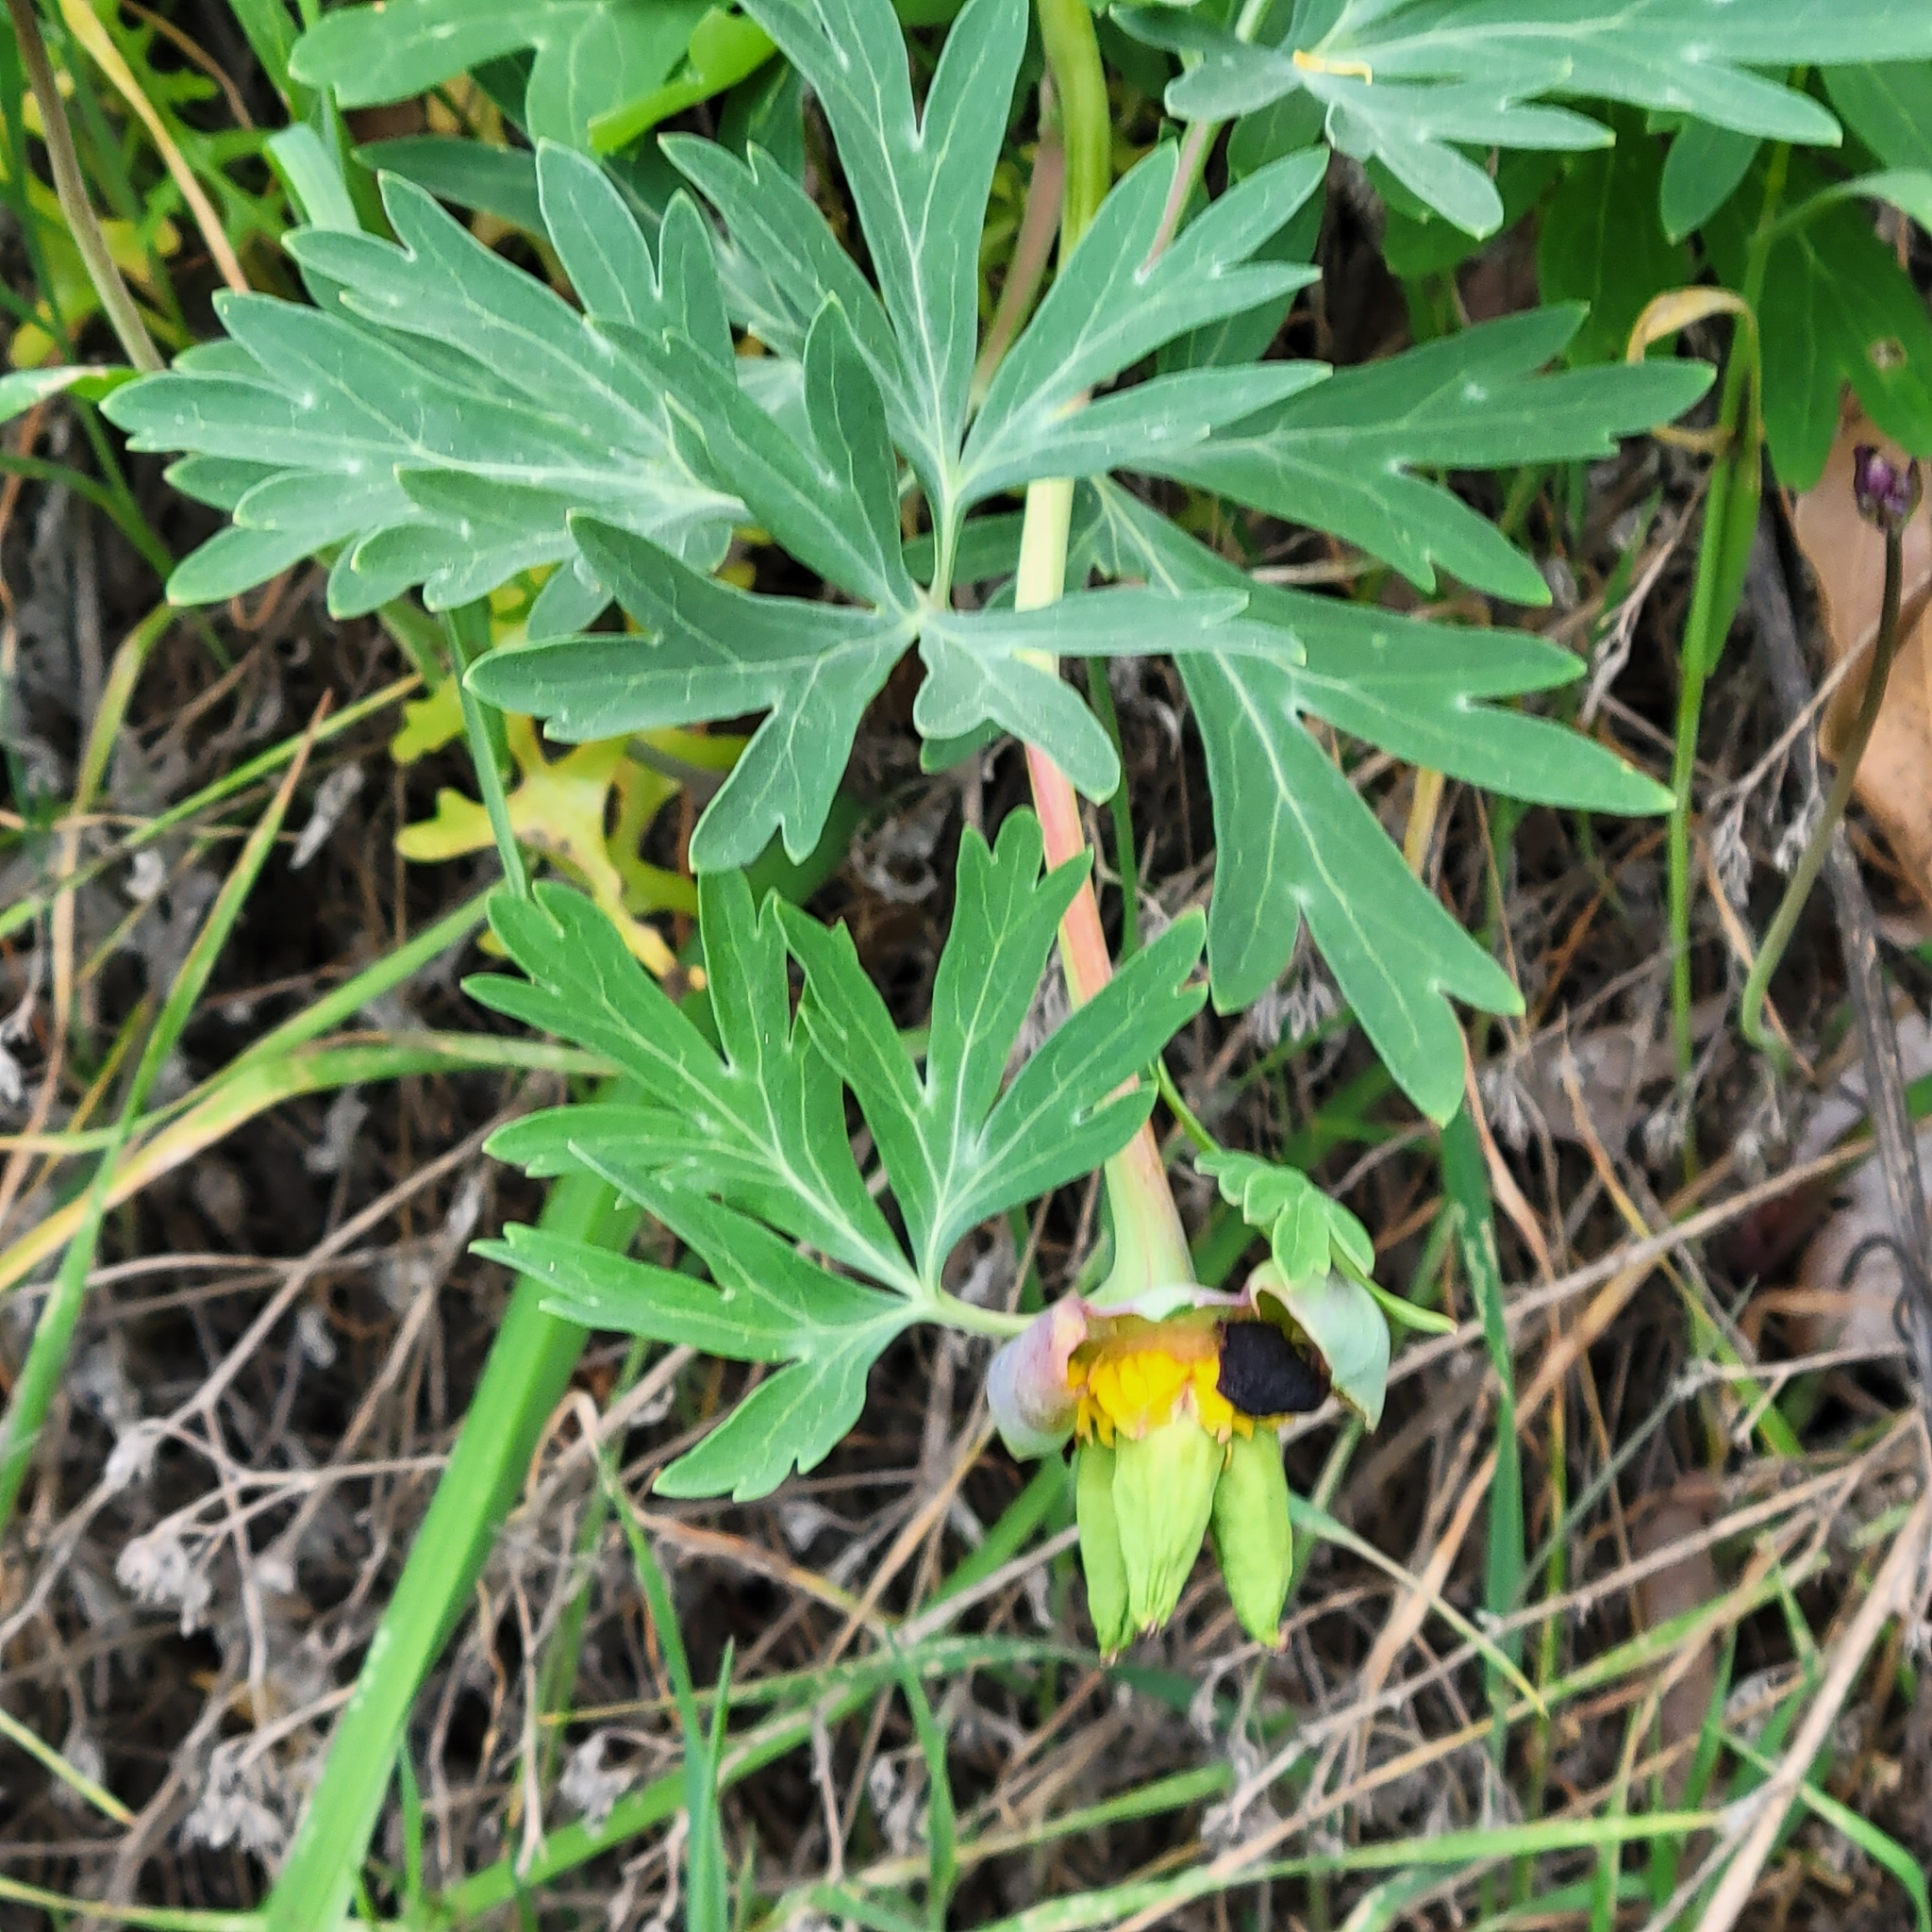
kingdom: Plantae
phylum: Tracheophyta
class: Magnoliopsida
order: Saxifragales
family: Paeoniaceae
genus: Paeonia
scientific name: Paeonia californica
